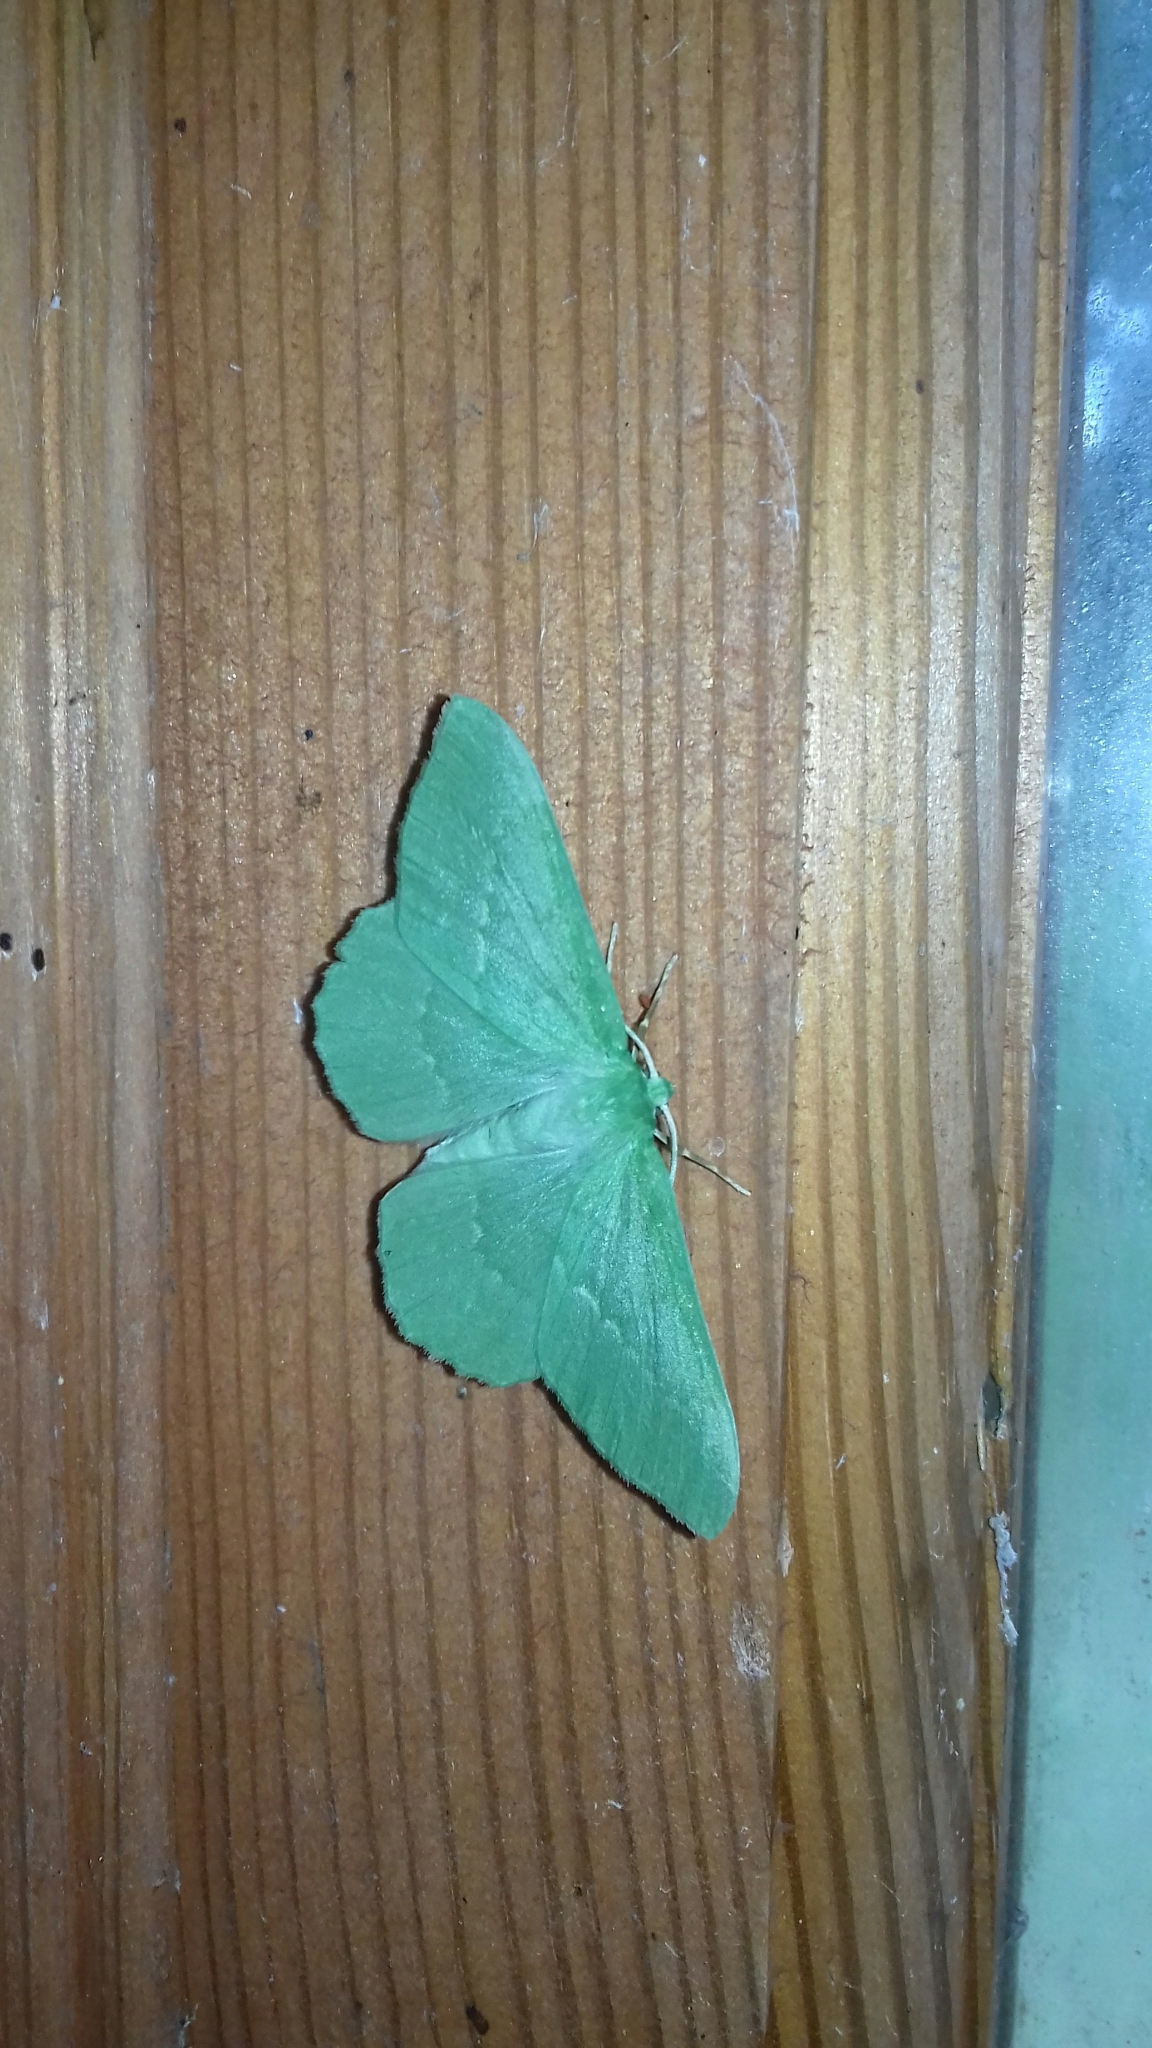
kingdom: Animalia
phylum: Arthropoda
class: Insecta
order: Lepidoptera
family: Geometridae
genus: Geometra
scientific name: Geometra papilionaria
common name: Large emerald
